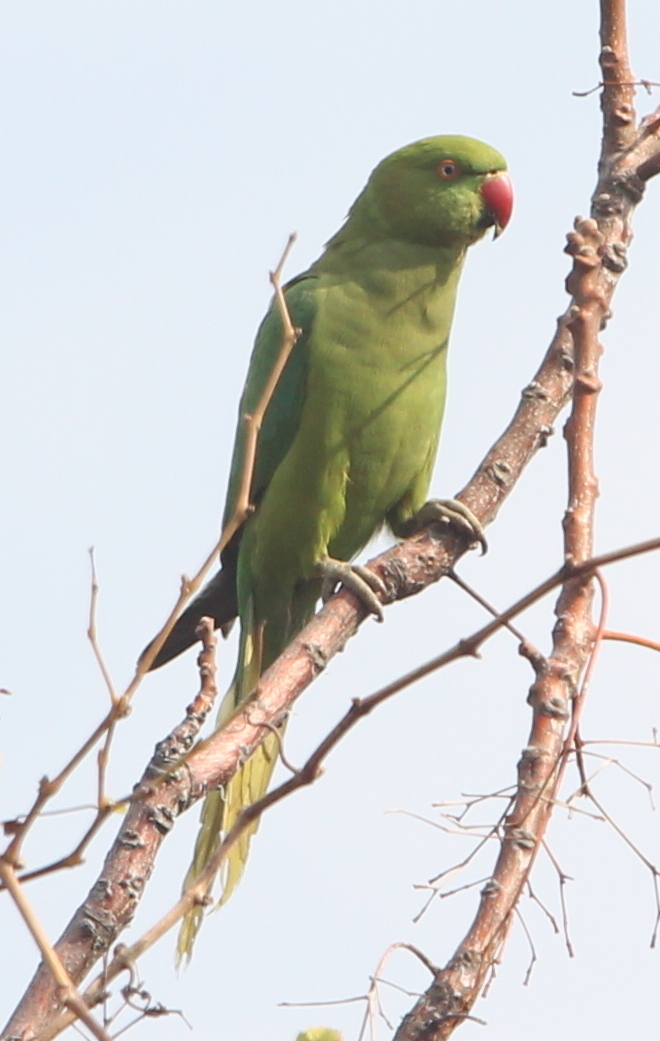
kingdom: Animalia
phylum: Chordata
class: Aves
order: Psittaciformes
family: Psittacidae
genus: Psittacula
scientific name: Psittacula krameri
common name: Rose-ringed parakeet
